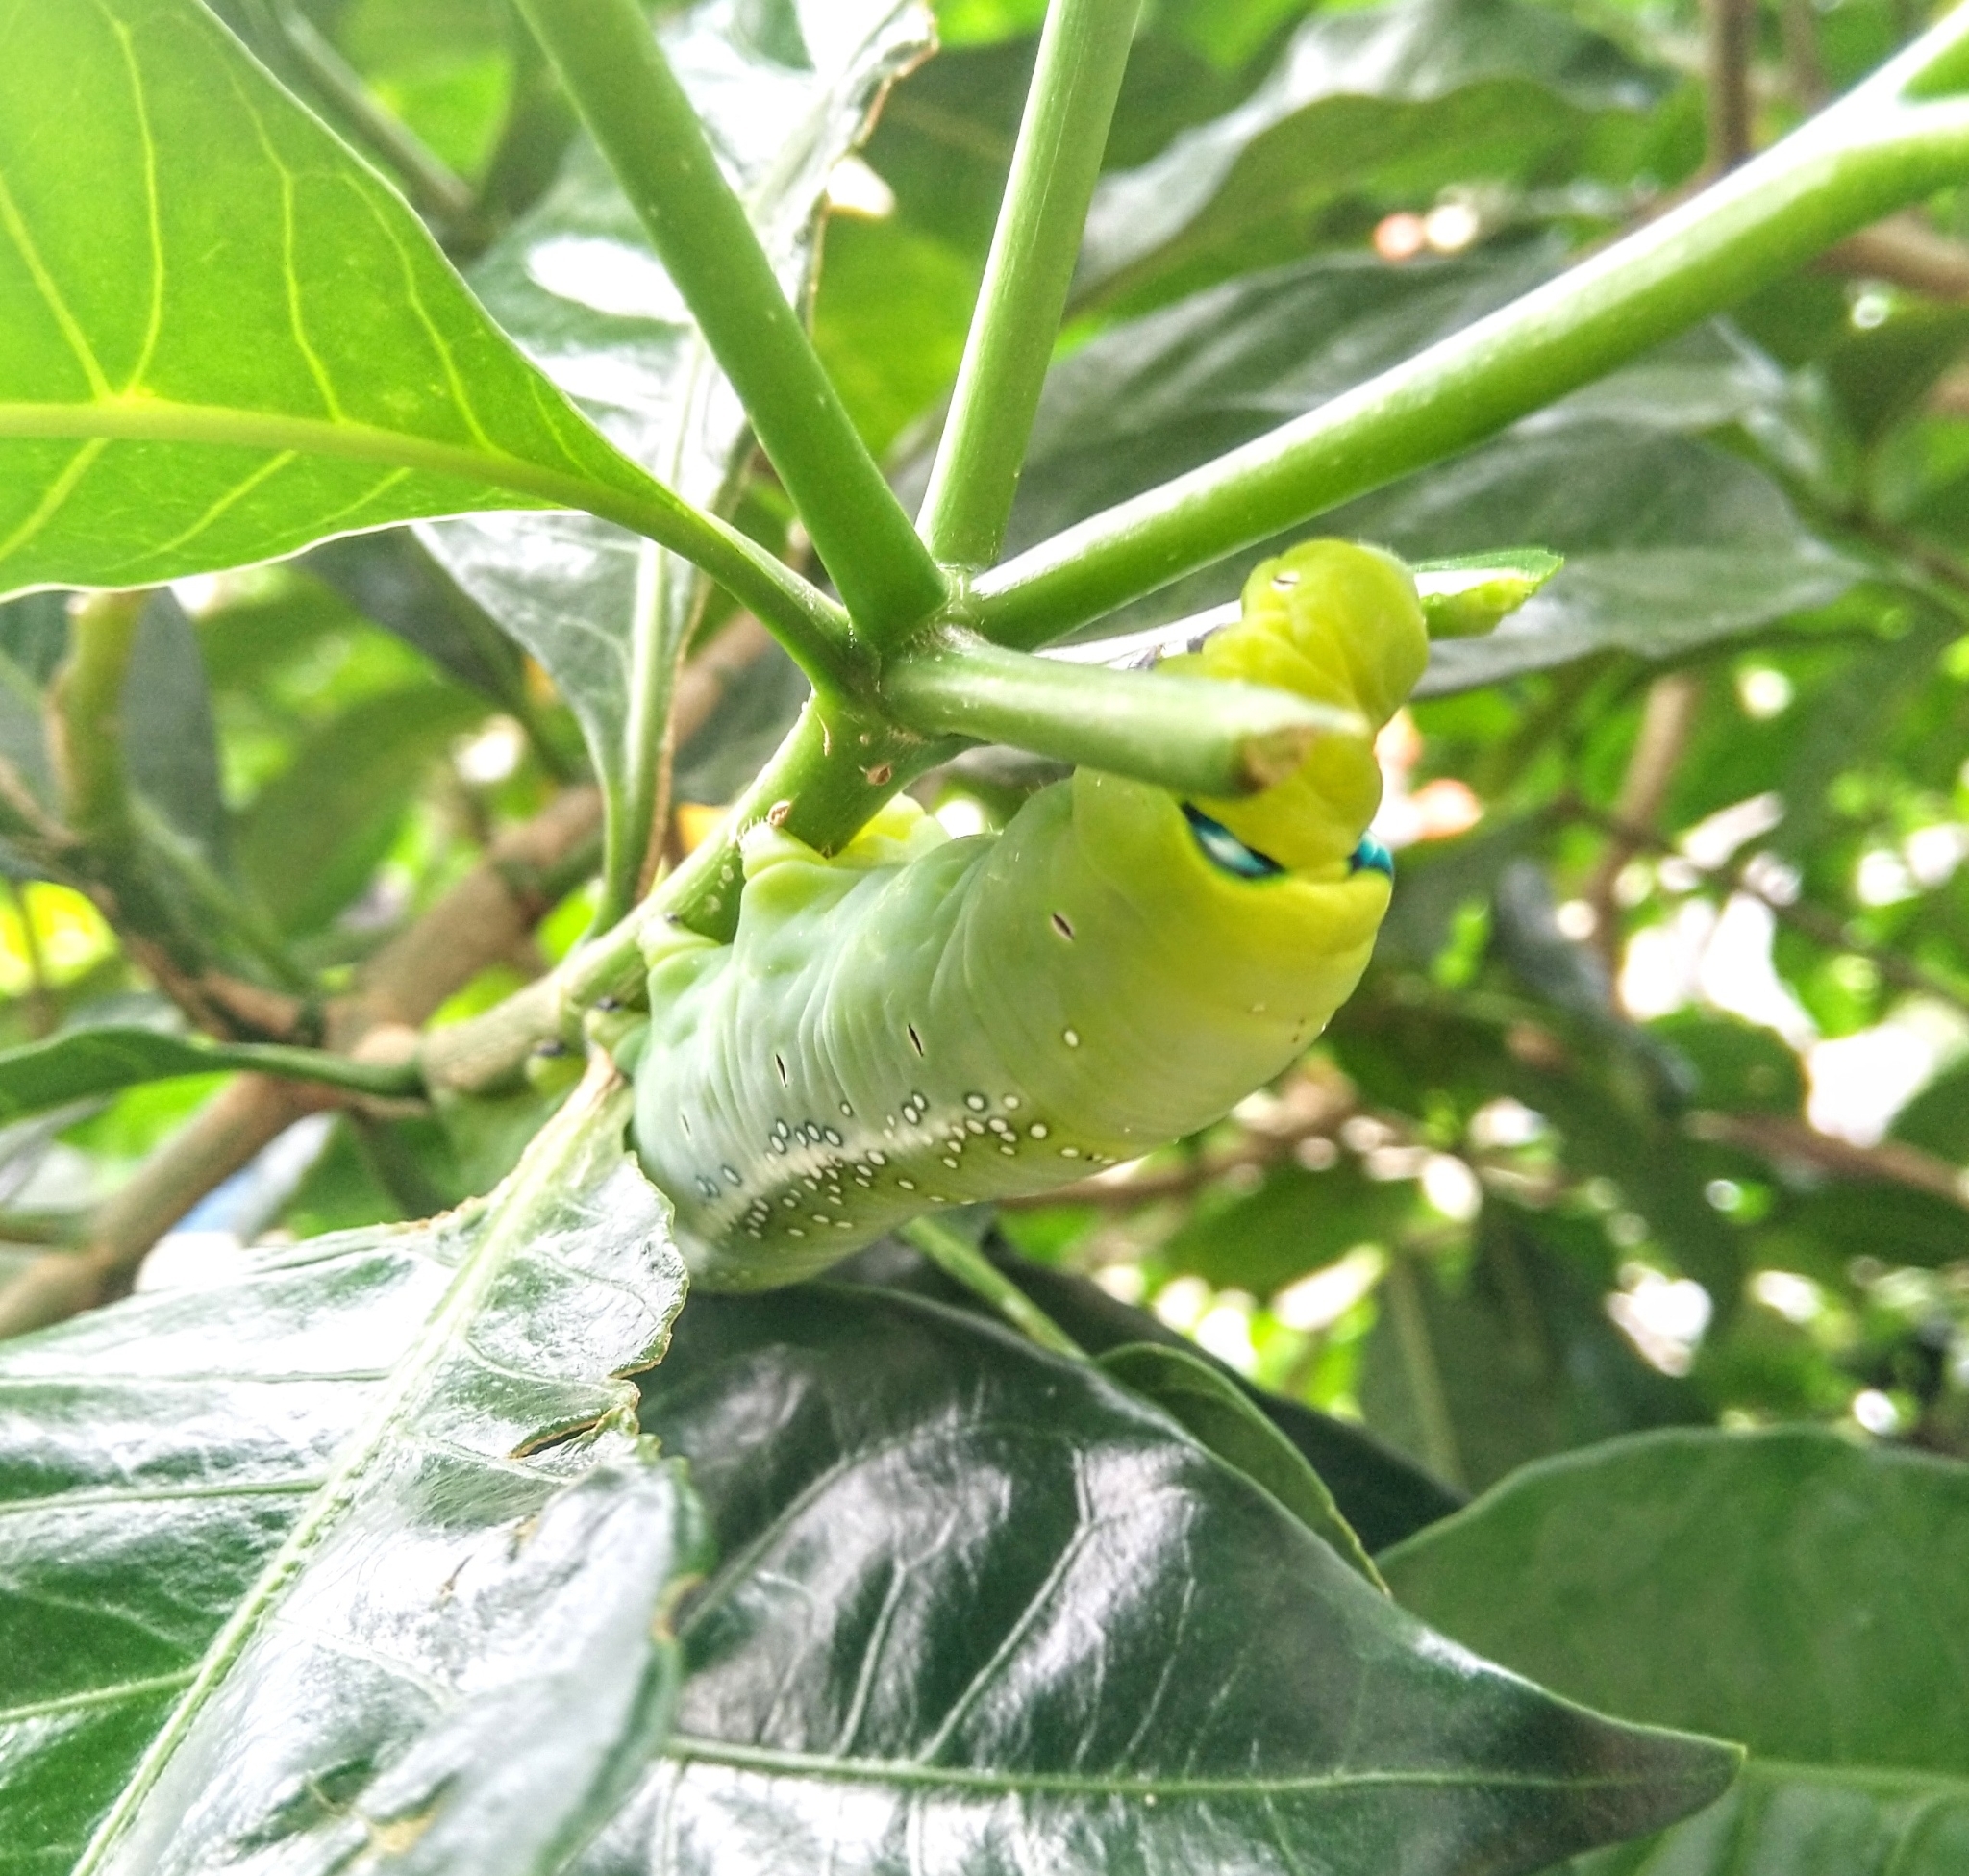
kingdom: Animalia
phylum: Arthropoda
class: Insecta
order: Lepidoptera
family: Sphingidae
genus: Daphnis
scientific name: Daphnis nerii
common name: Oleander hawk-moth
